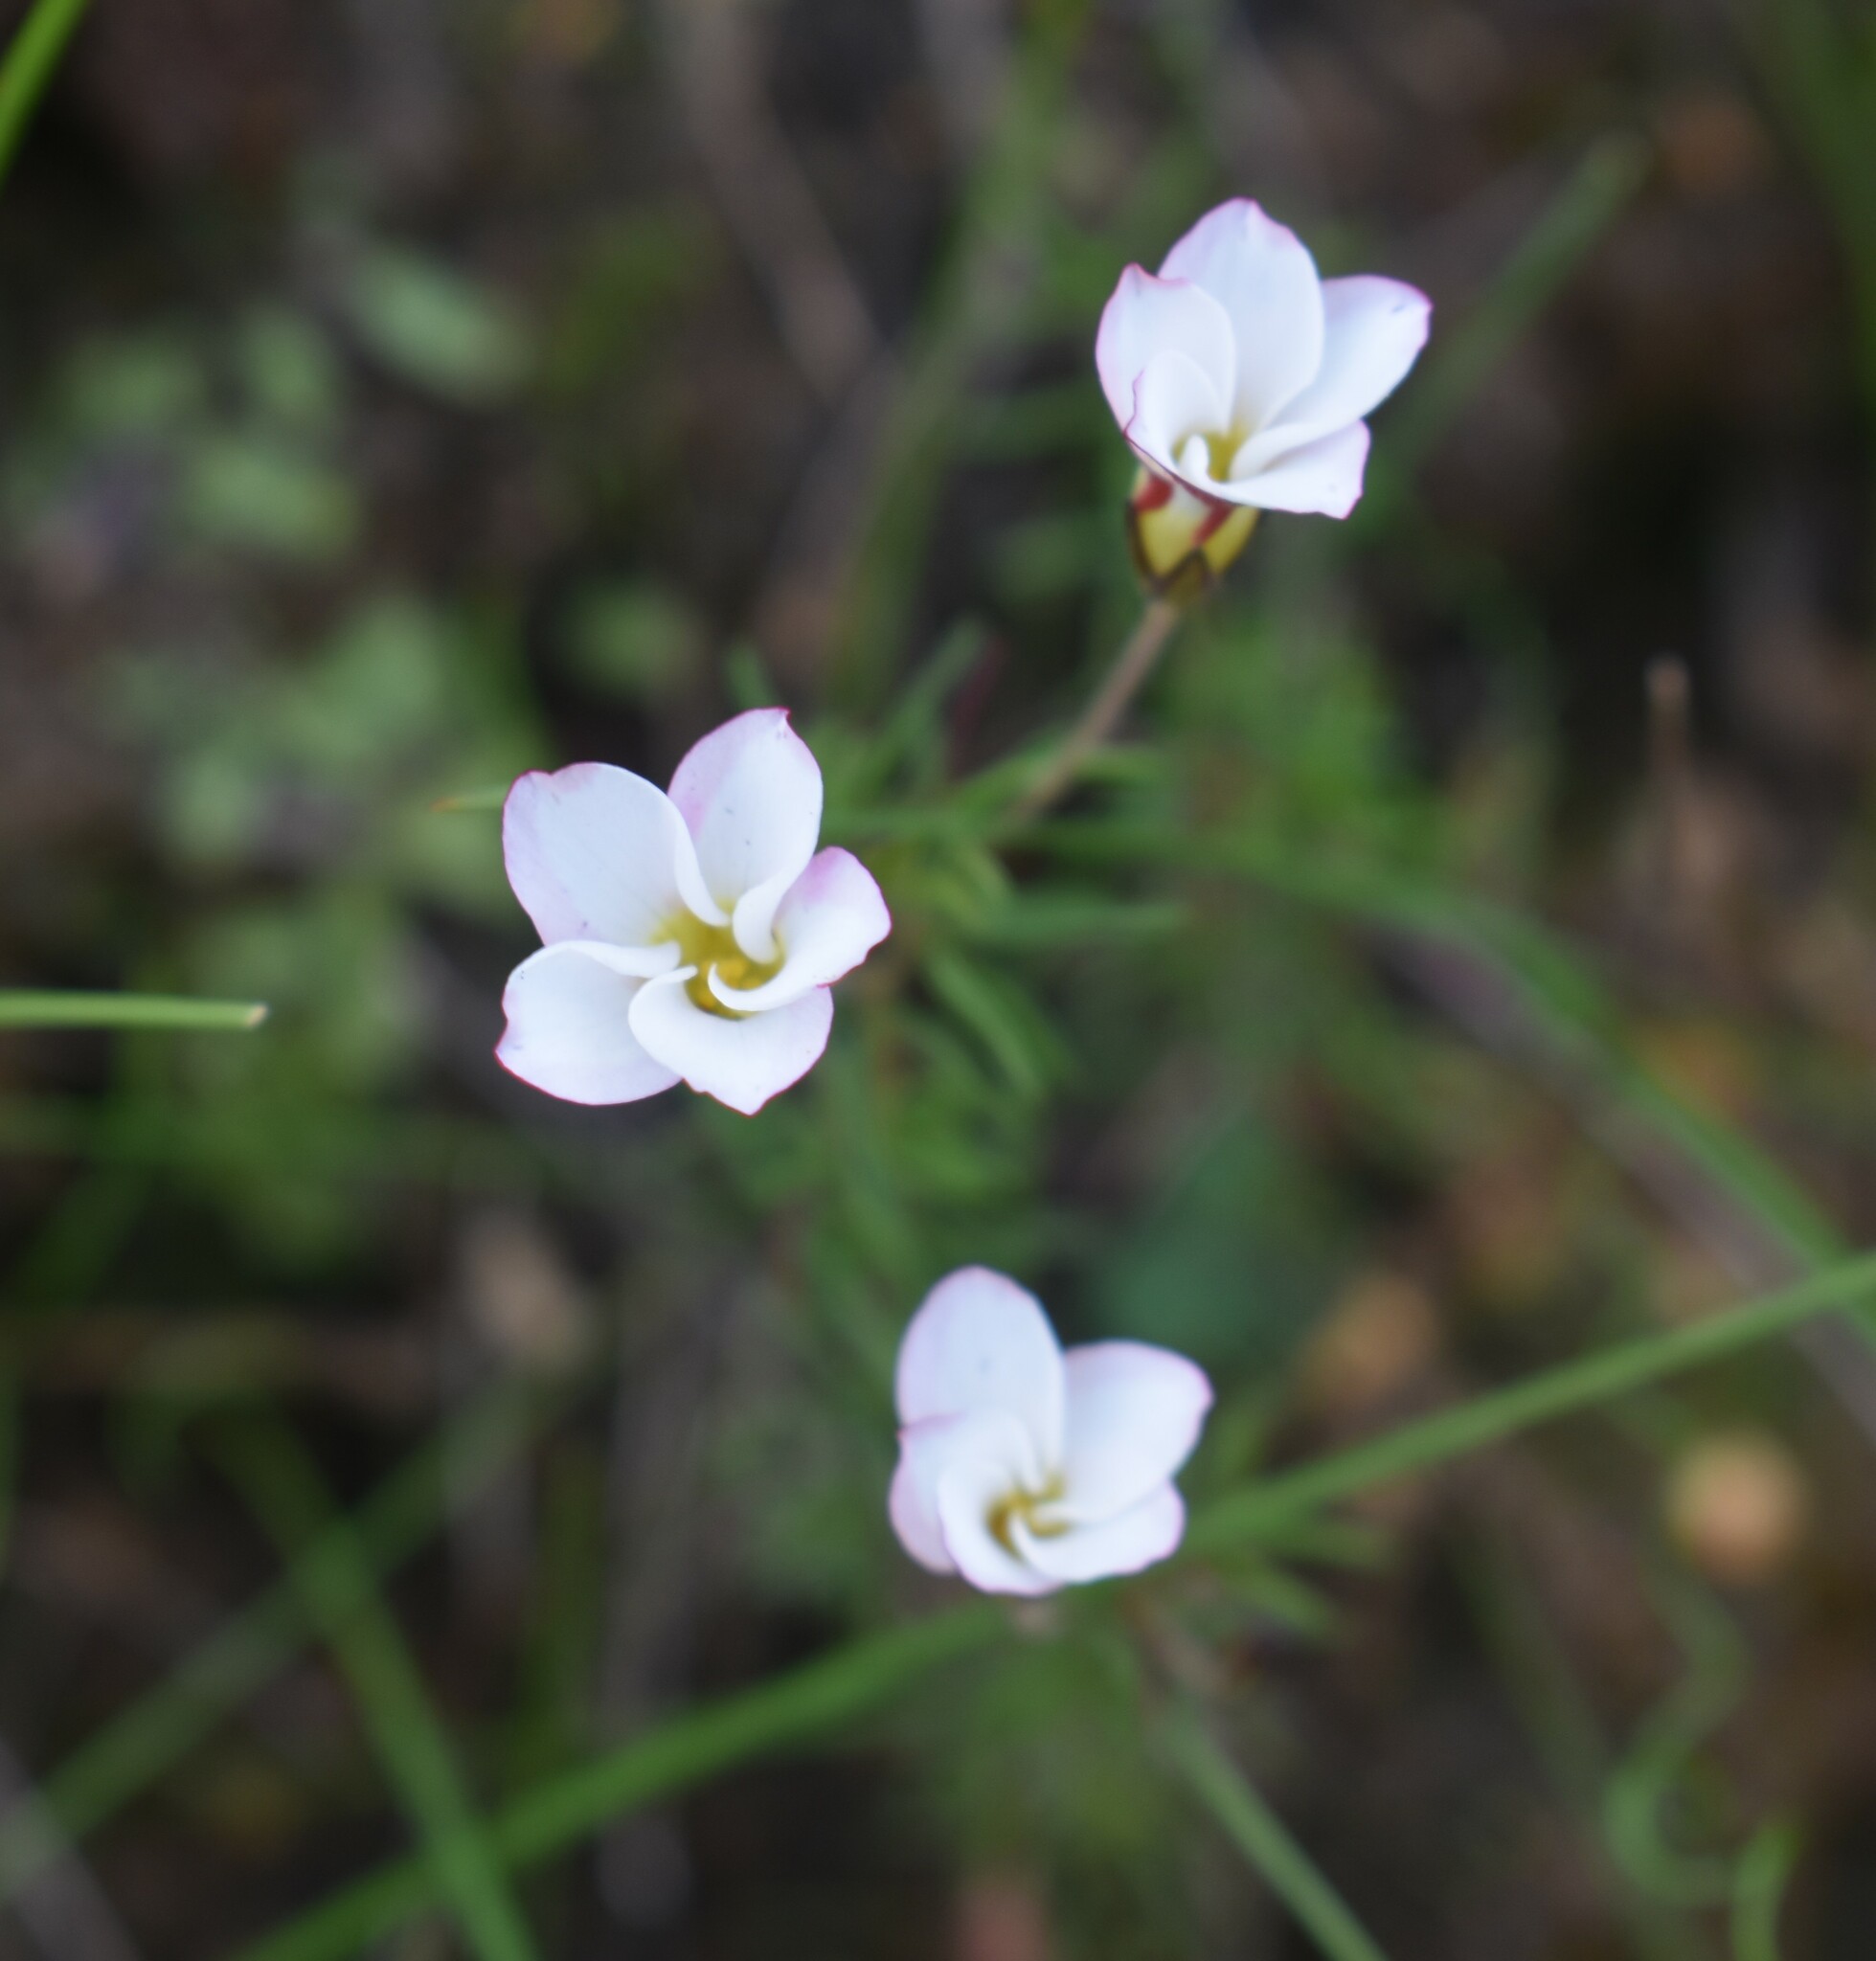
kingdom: Plantae
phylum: Tracheophyta
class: Magnoliopsida
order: Oxalidales
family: Oxalidaceae
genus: Oxalis
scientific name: Oxalis tenuifolia
